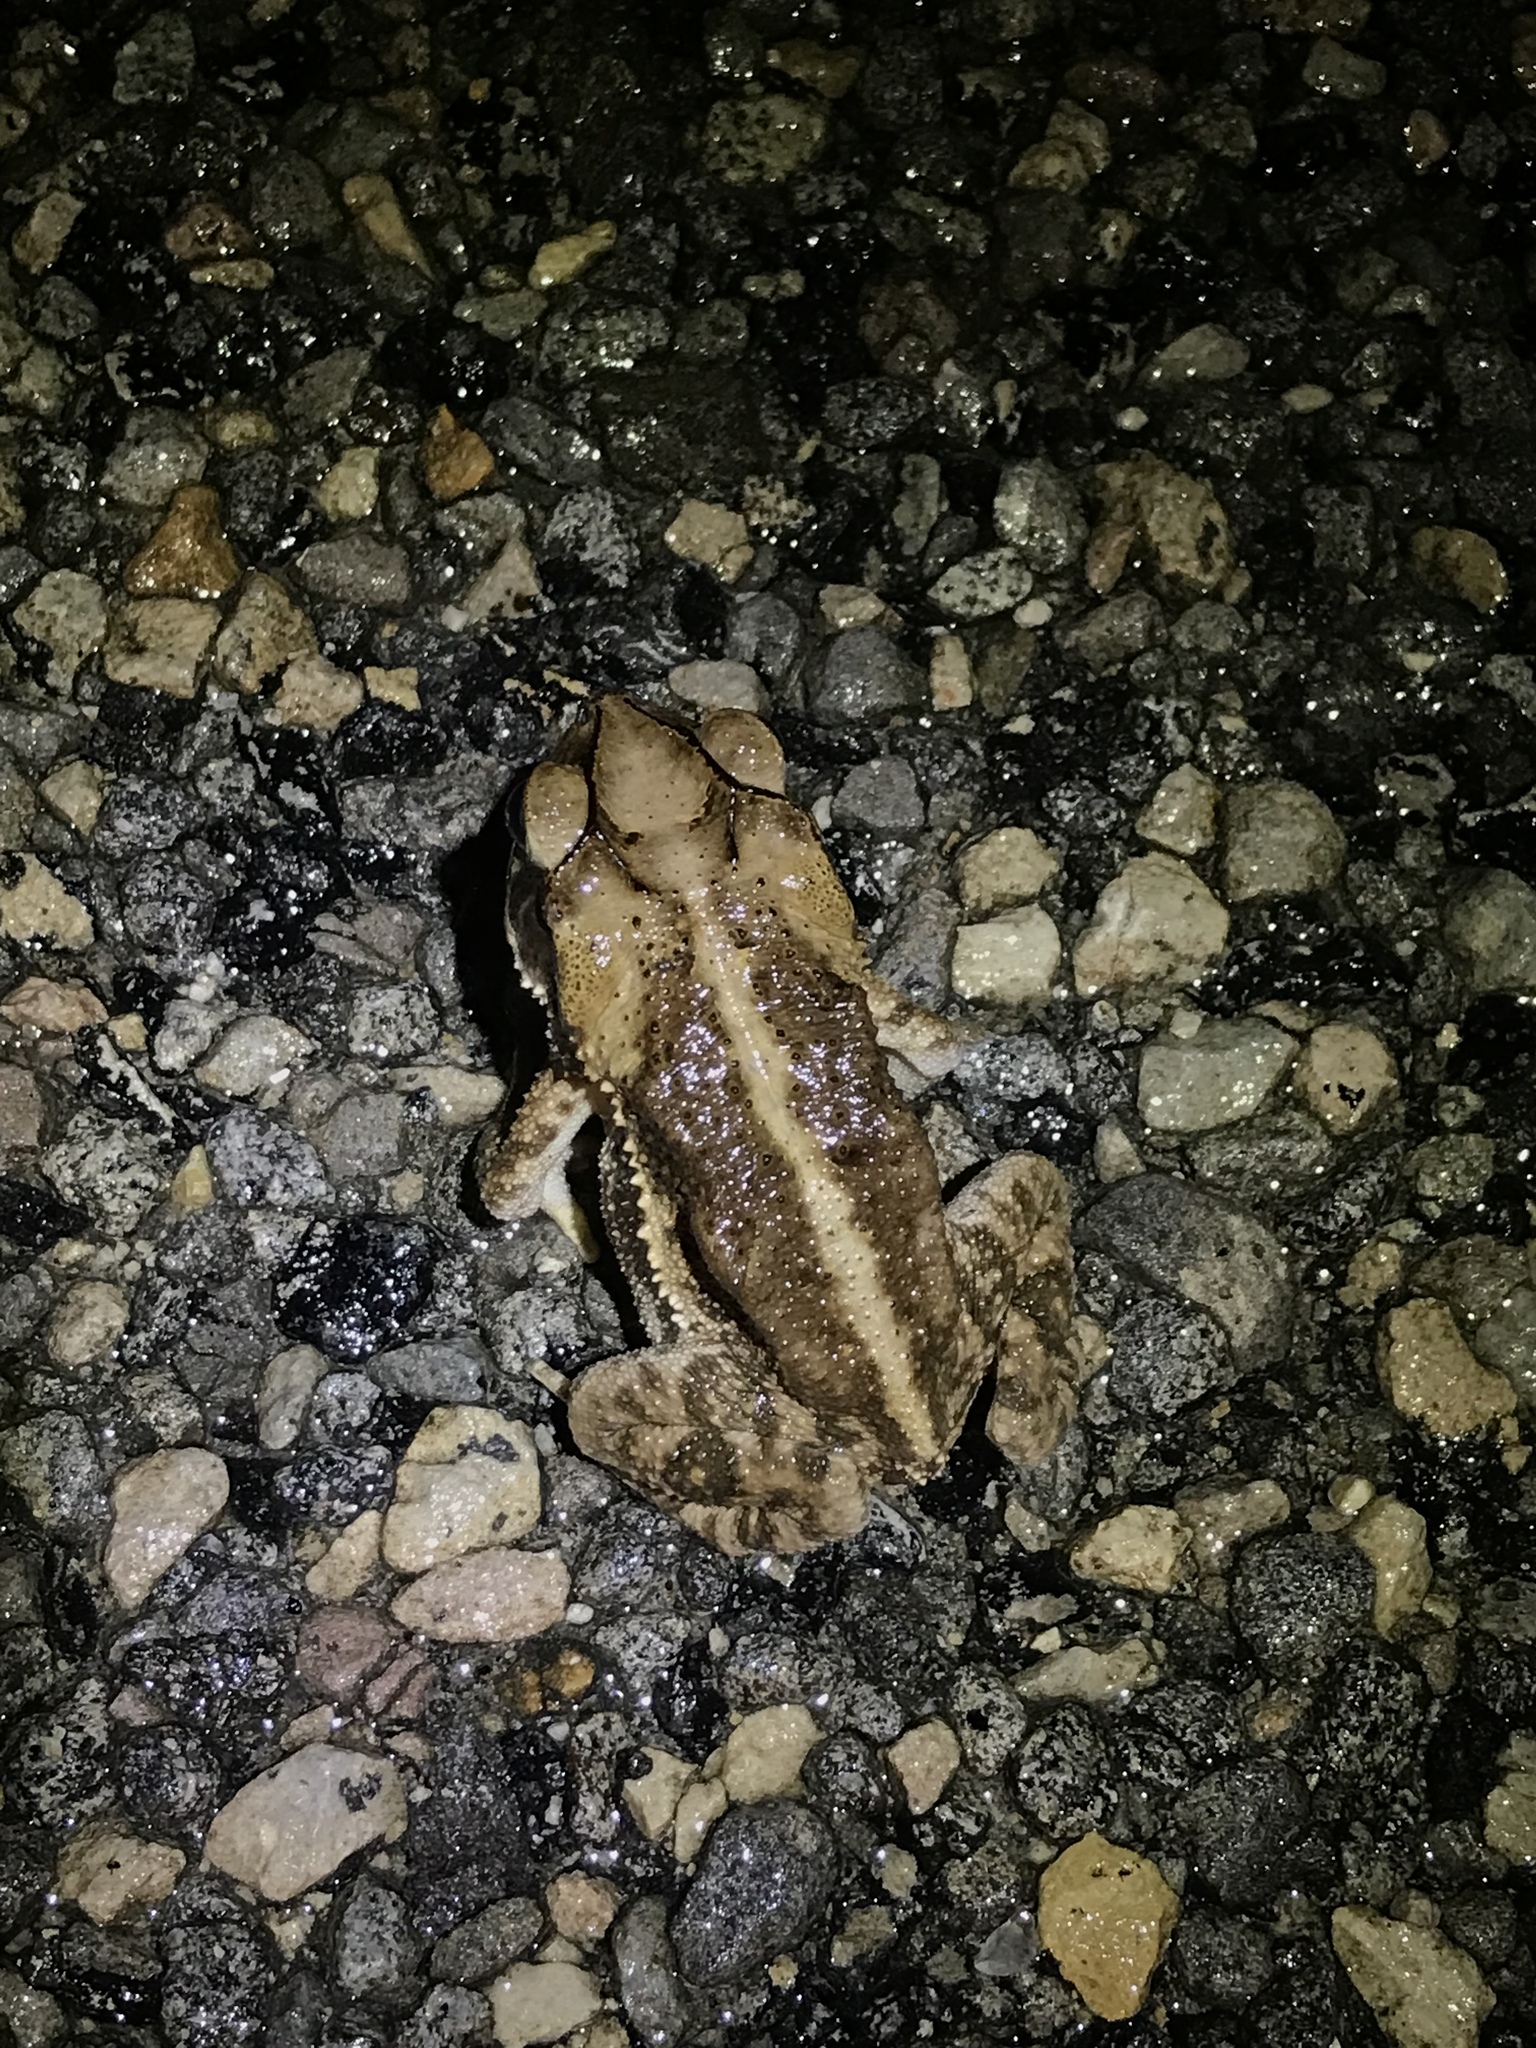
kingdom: Animalia
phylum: Chordata
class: Amphibia
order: Anura
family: Bufonidae
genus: Incilius
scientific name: Incilius nebulifer
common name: Gulf coast toad
